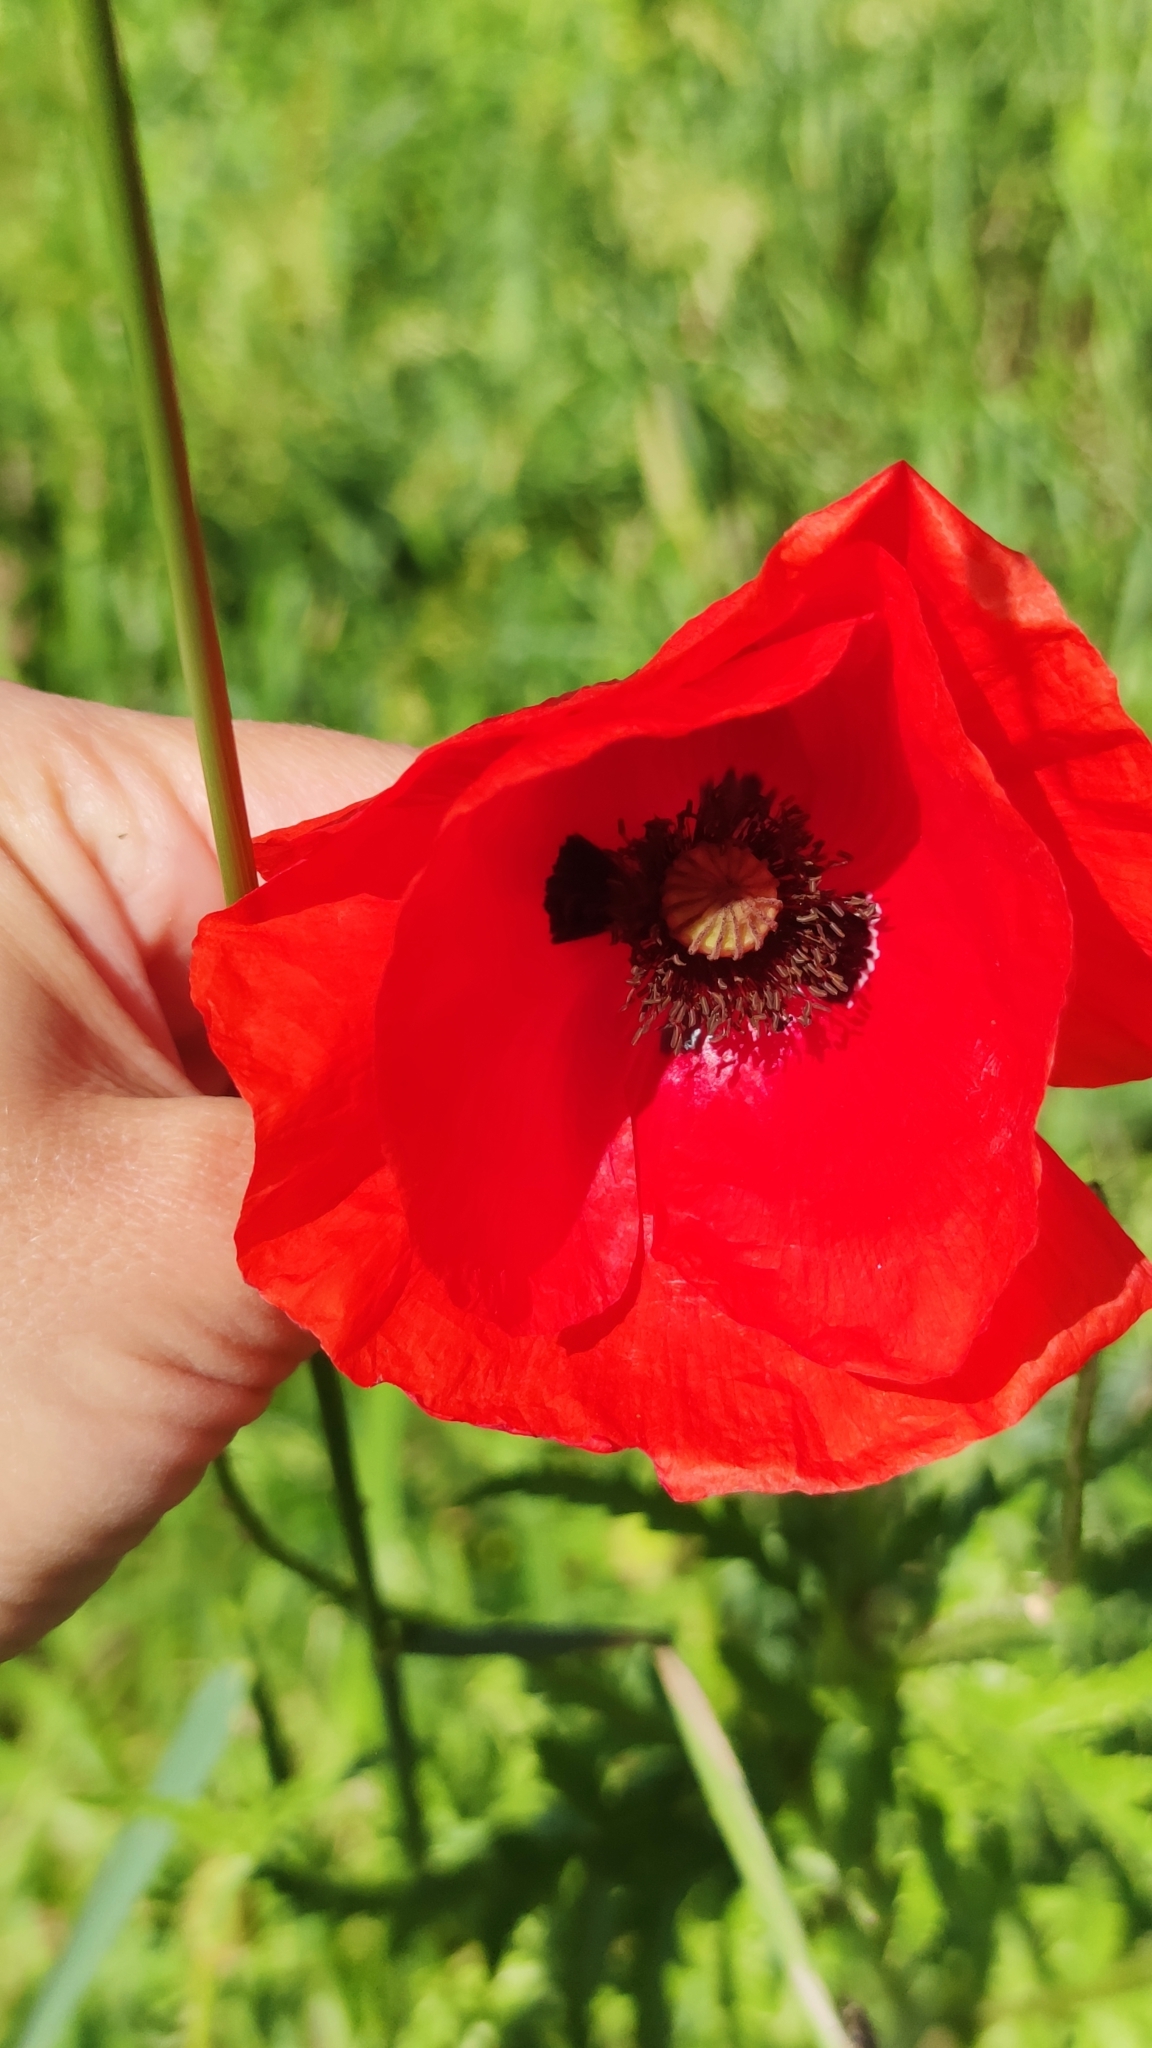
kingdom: Plantae
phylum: Tracheophyta
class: Magnoliopsida
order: Ranunculales
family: Papaveraceae
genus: Papaver
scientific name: Papaver rhoeas
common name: Corn poppy
